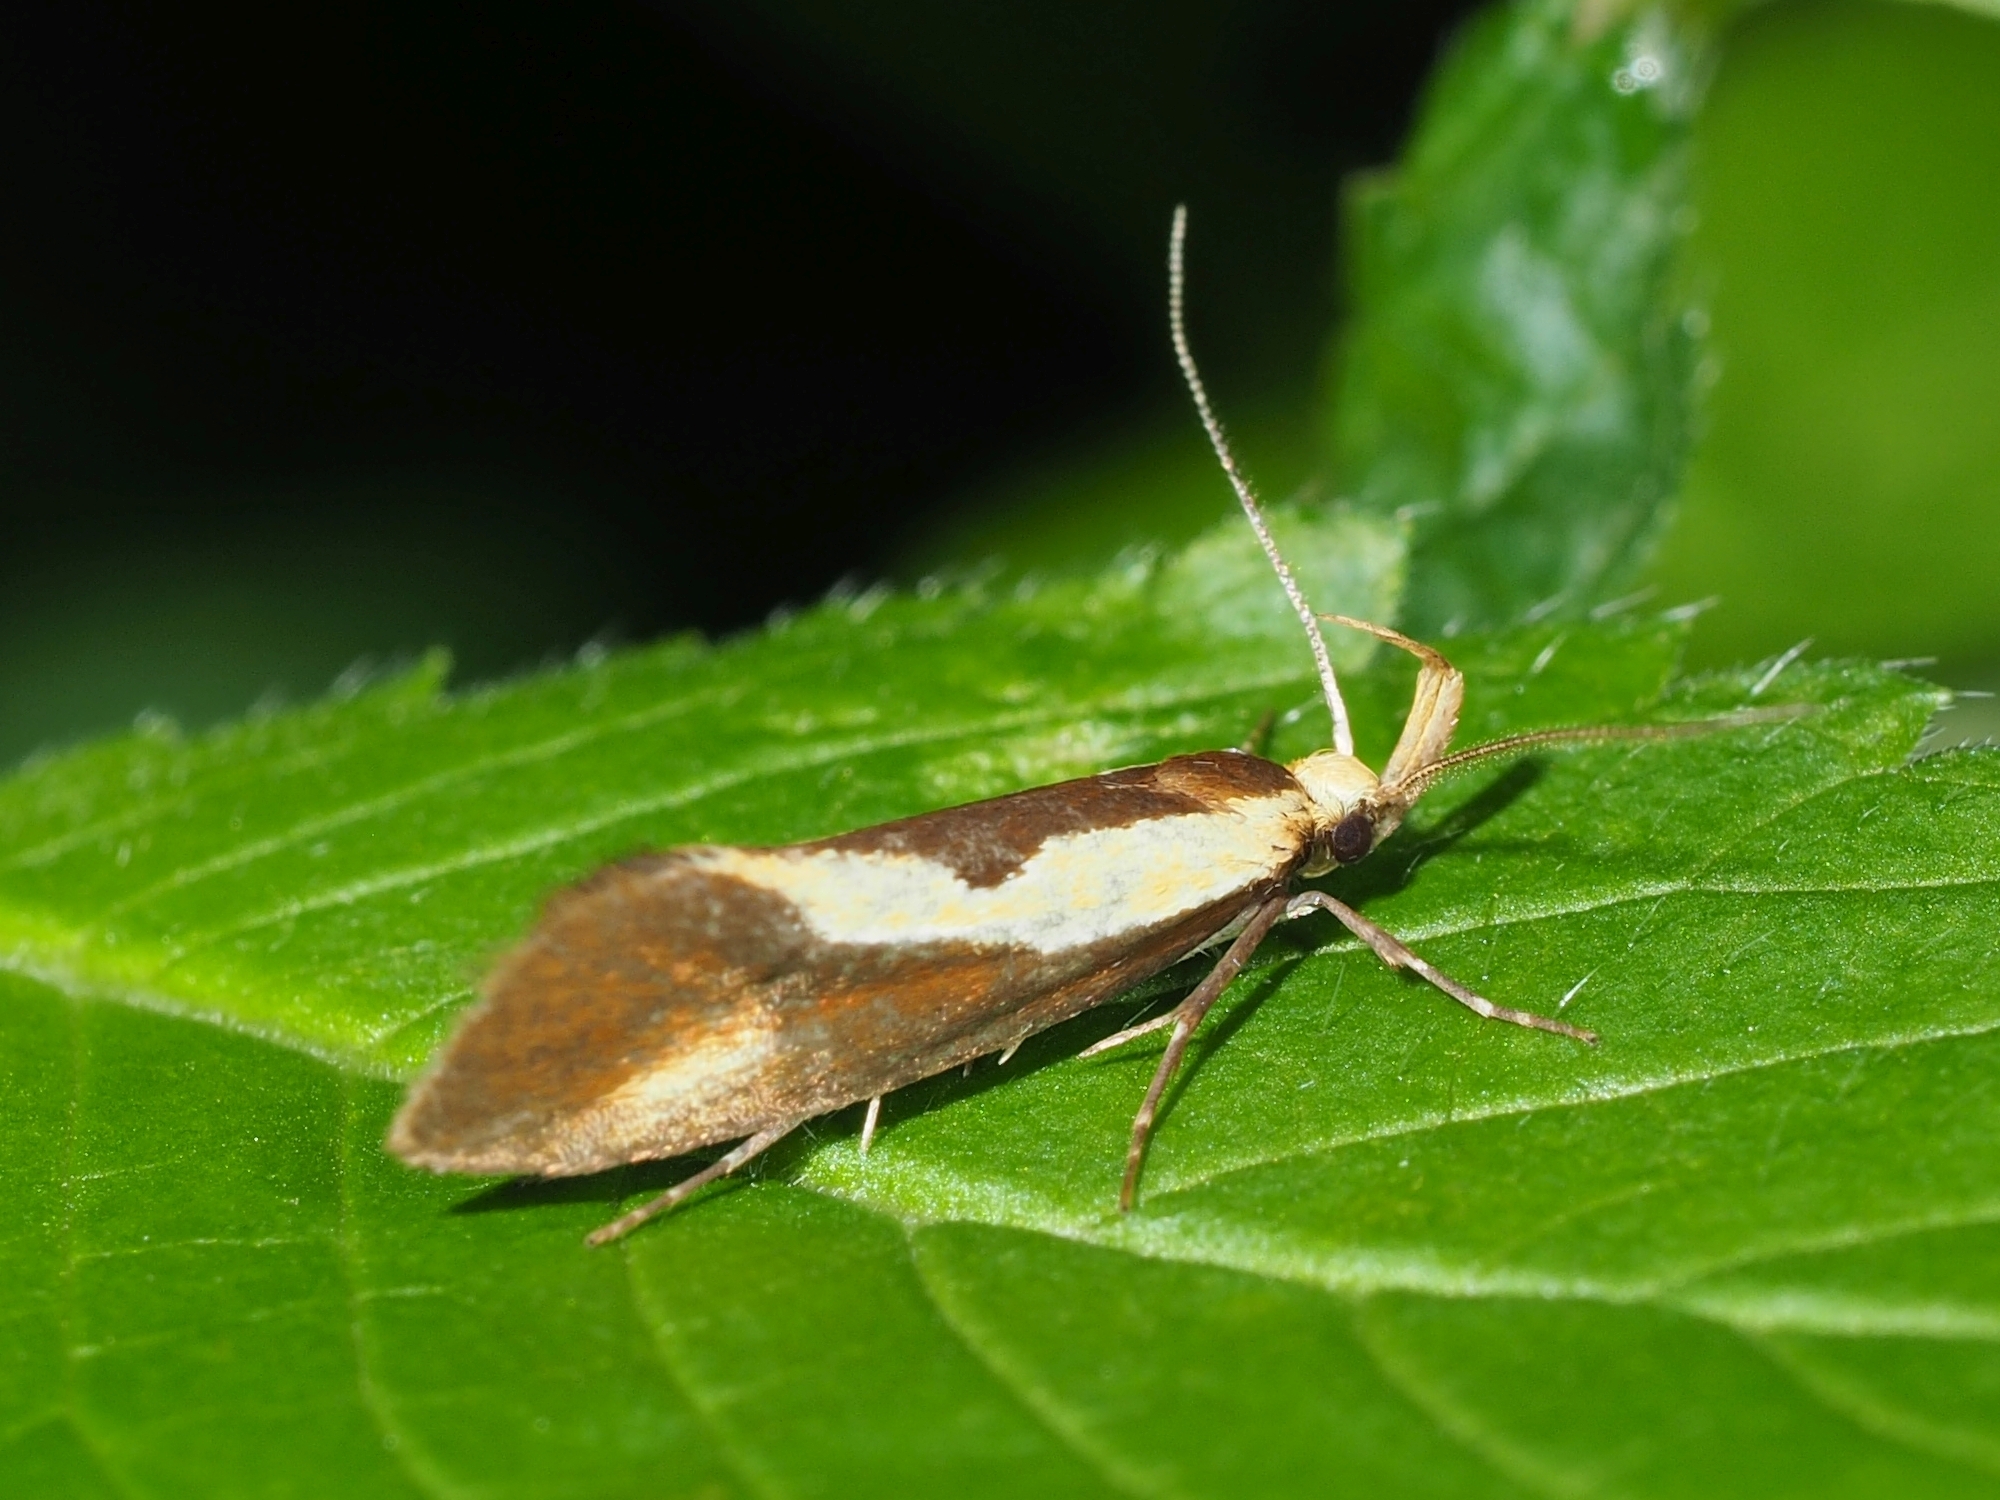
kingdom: Animalia
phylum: Arthropoda
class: Insecta
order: Lepidoptera
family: Oecophoridae
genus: Harpella
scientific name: Harpella forficella
